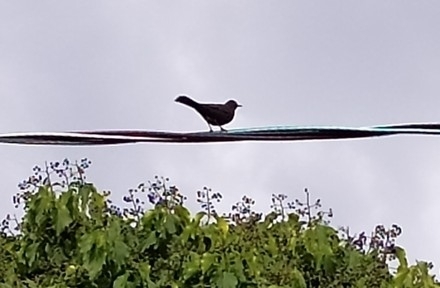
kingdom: Animalia
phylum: Chordata
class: Aves
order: Passeriformes
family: Turdidae
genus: Turdus
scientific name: Turdus merula
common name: Common blackbird
